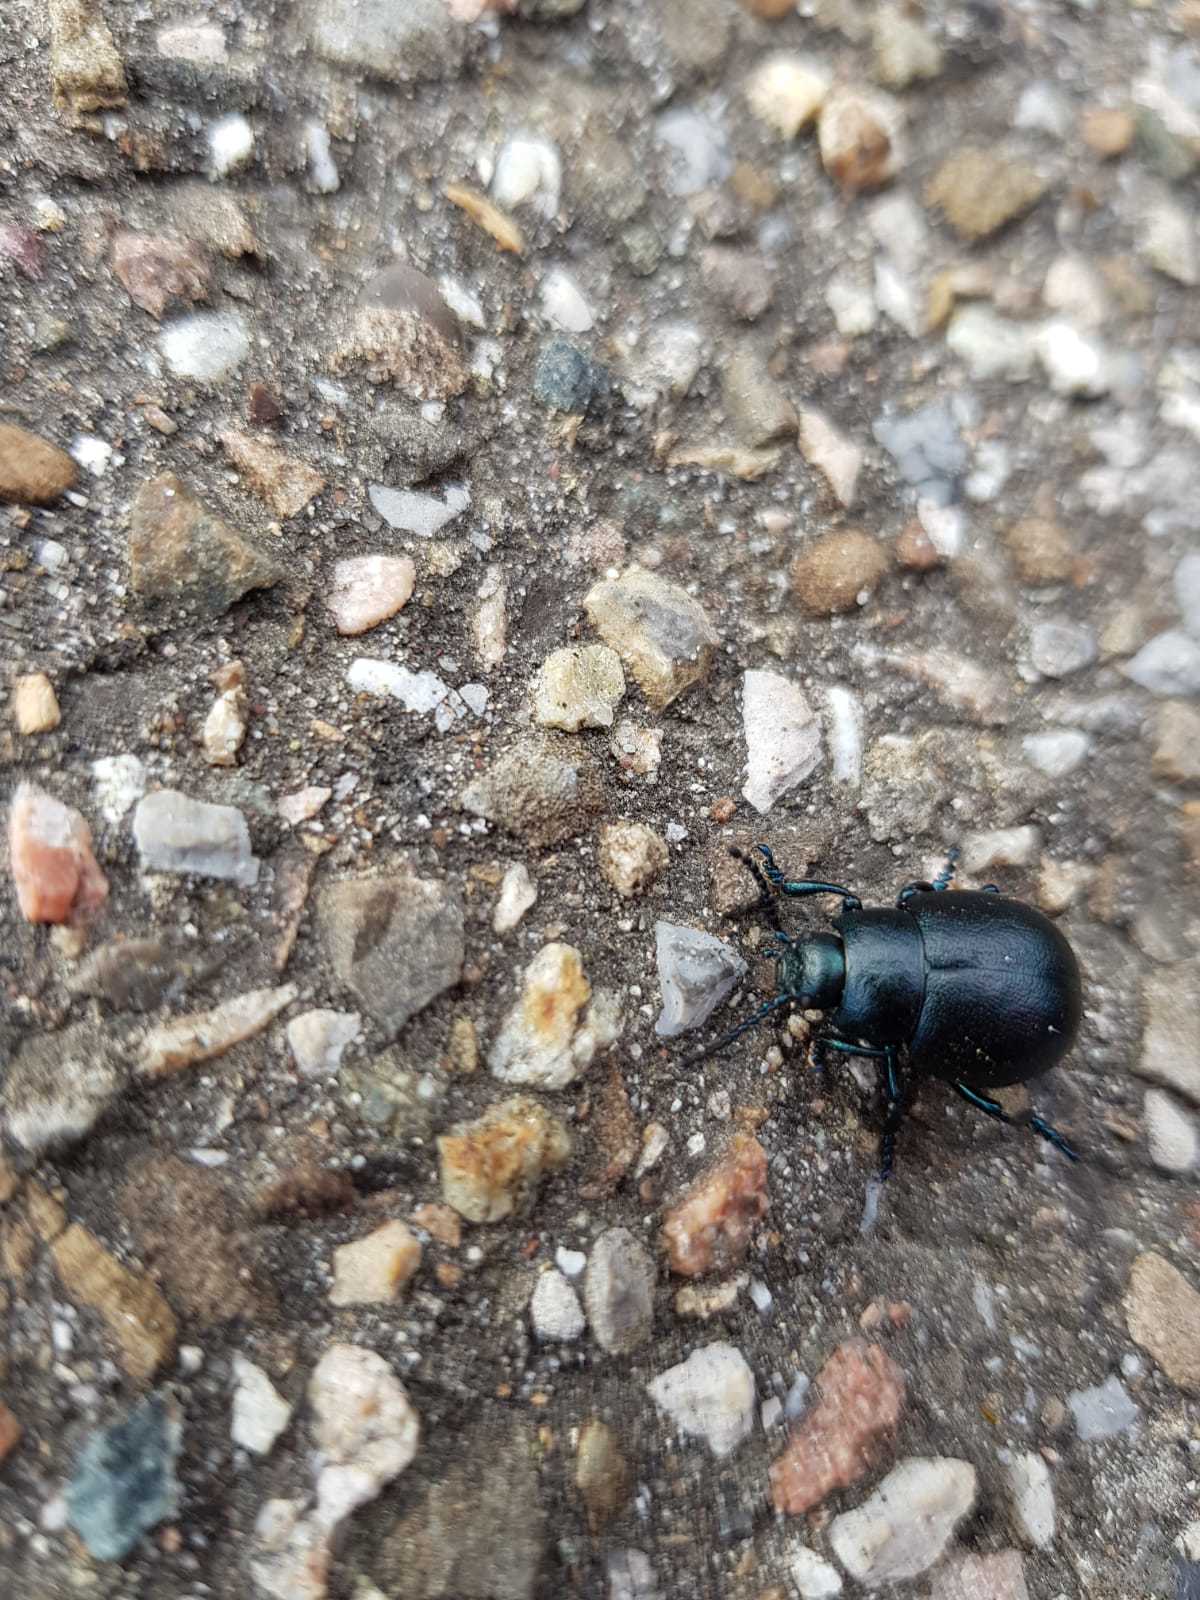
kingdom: Animalia
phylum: Arthropoda
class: Insecta
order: Coleoptera
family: Chrysomelidae
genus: Timarcha
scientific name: Timarcha goettingensis
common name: Small bloody-nosed beetle
